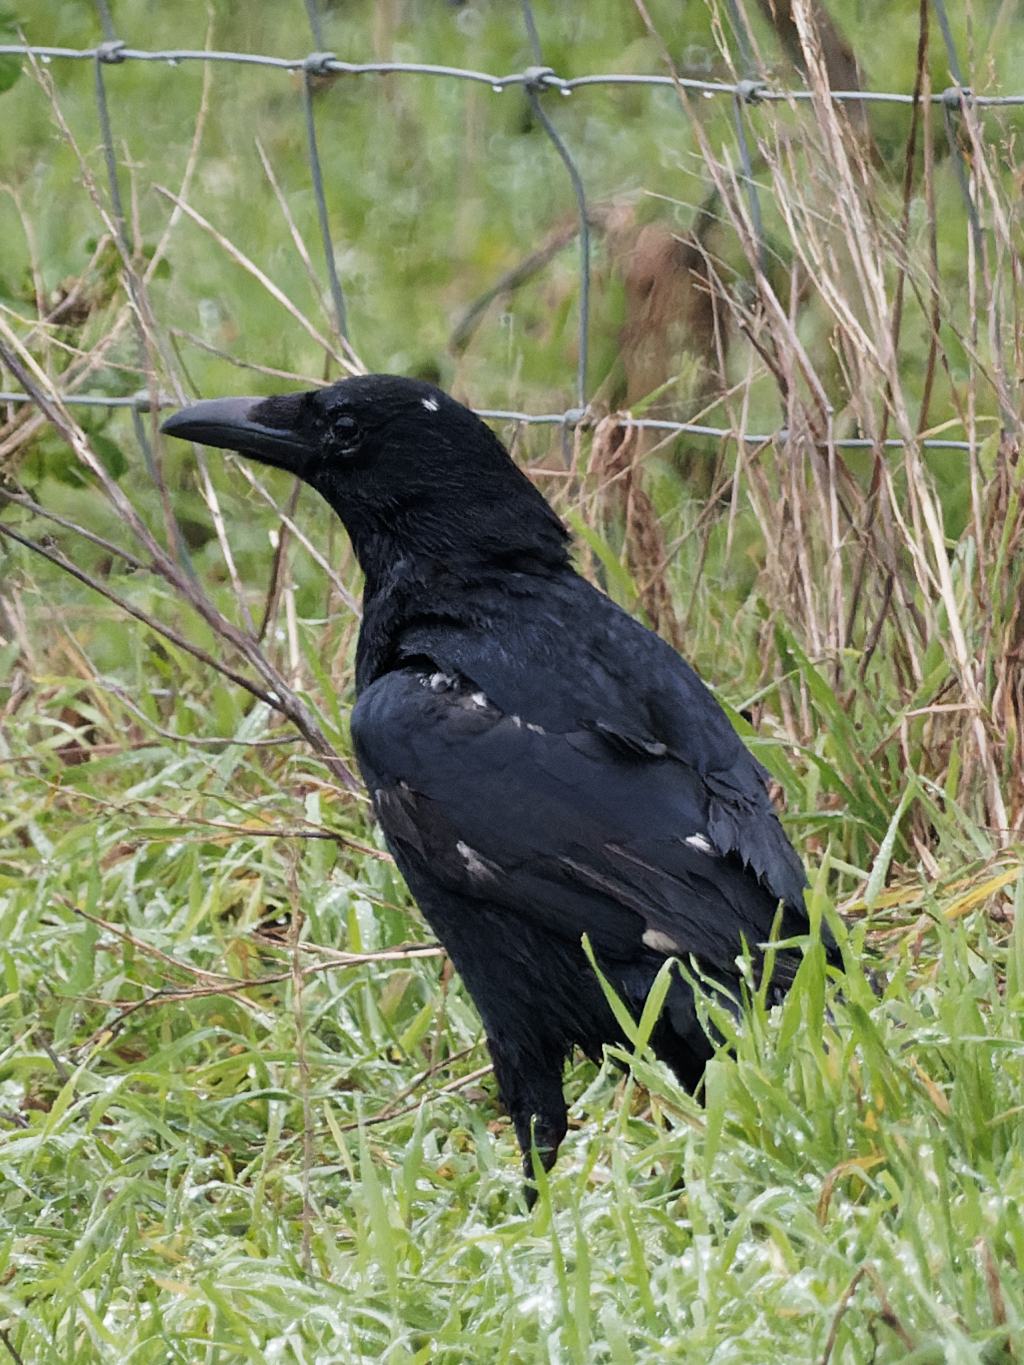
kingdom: Animalia
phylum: Chordata
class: Aves
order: Passeriformes
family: Corvidae
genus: Corvus
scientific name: Corvus corone
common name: Carrion crow
